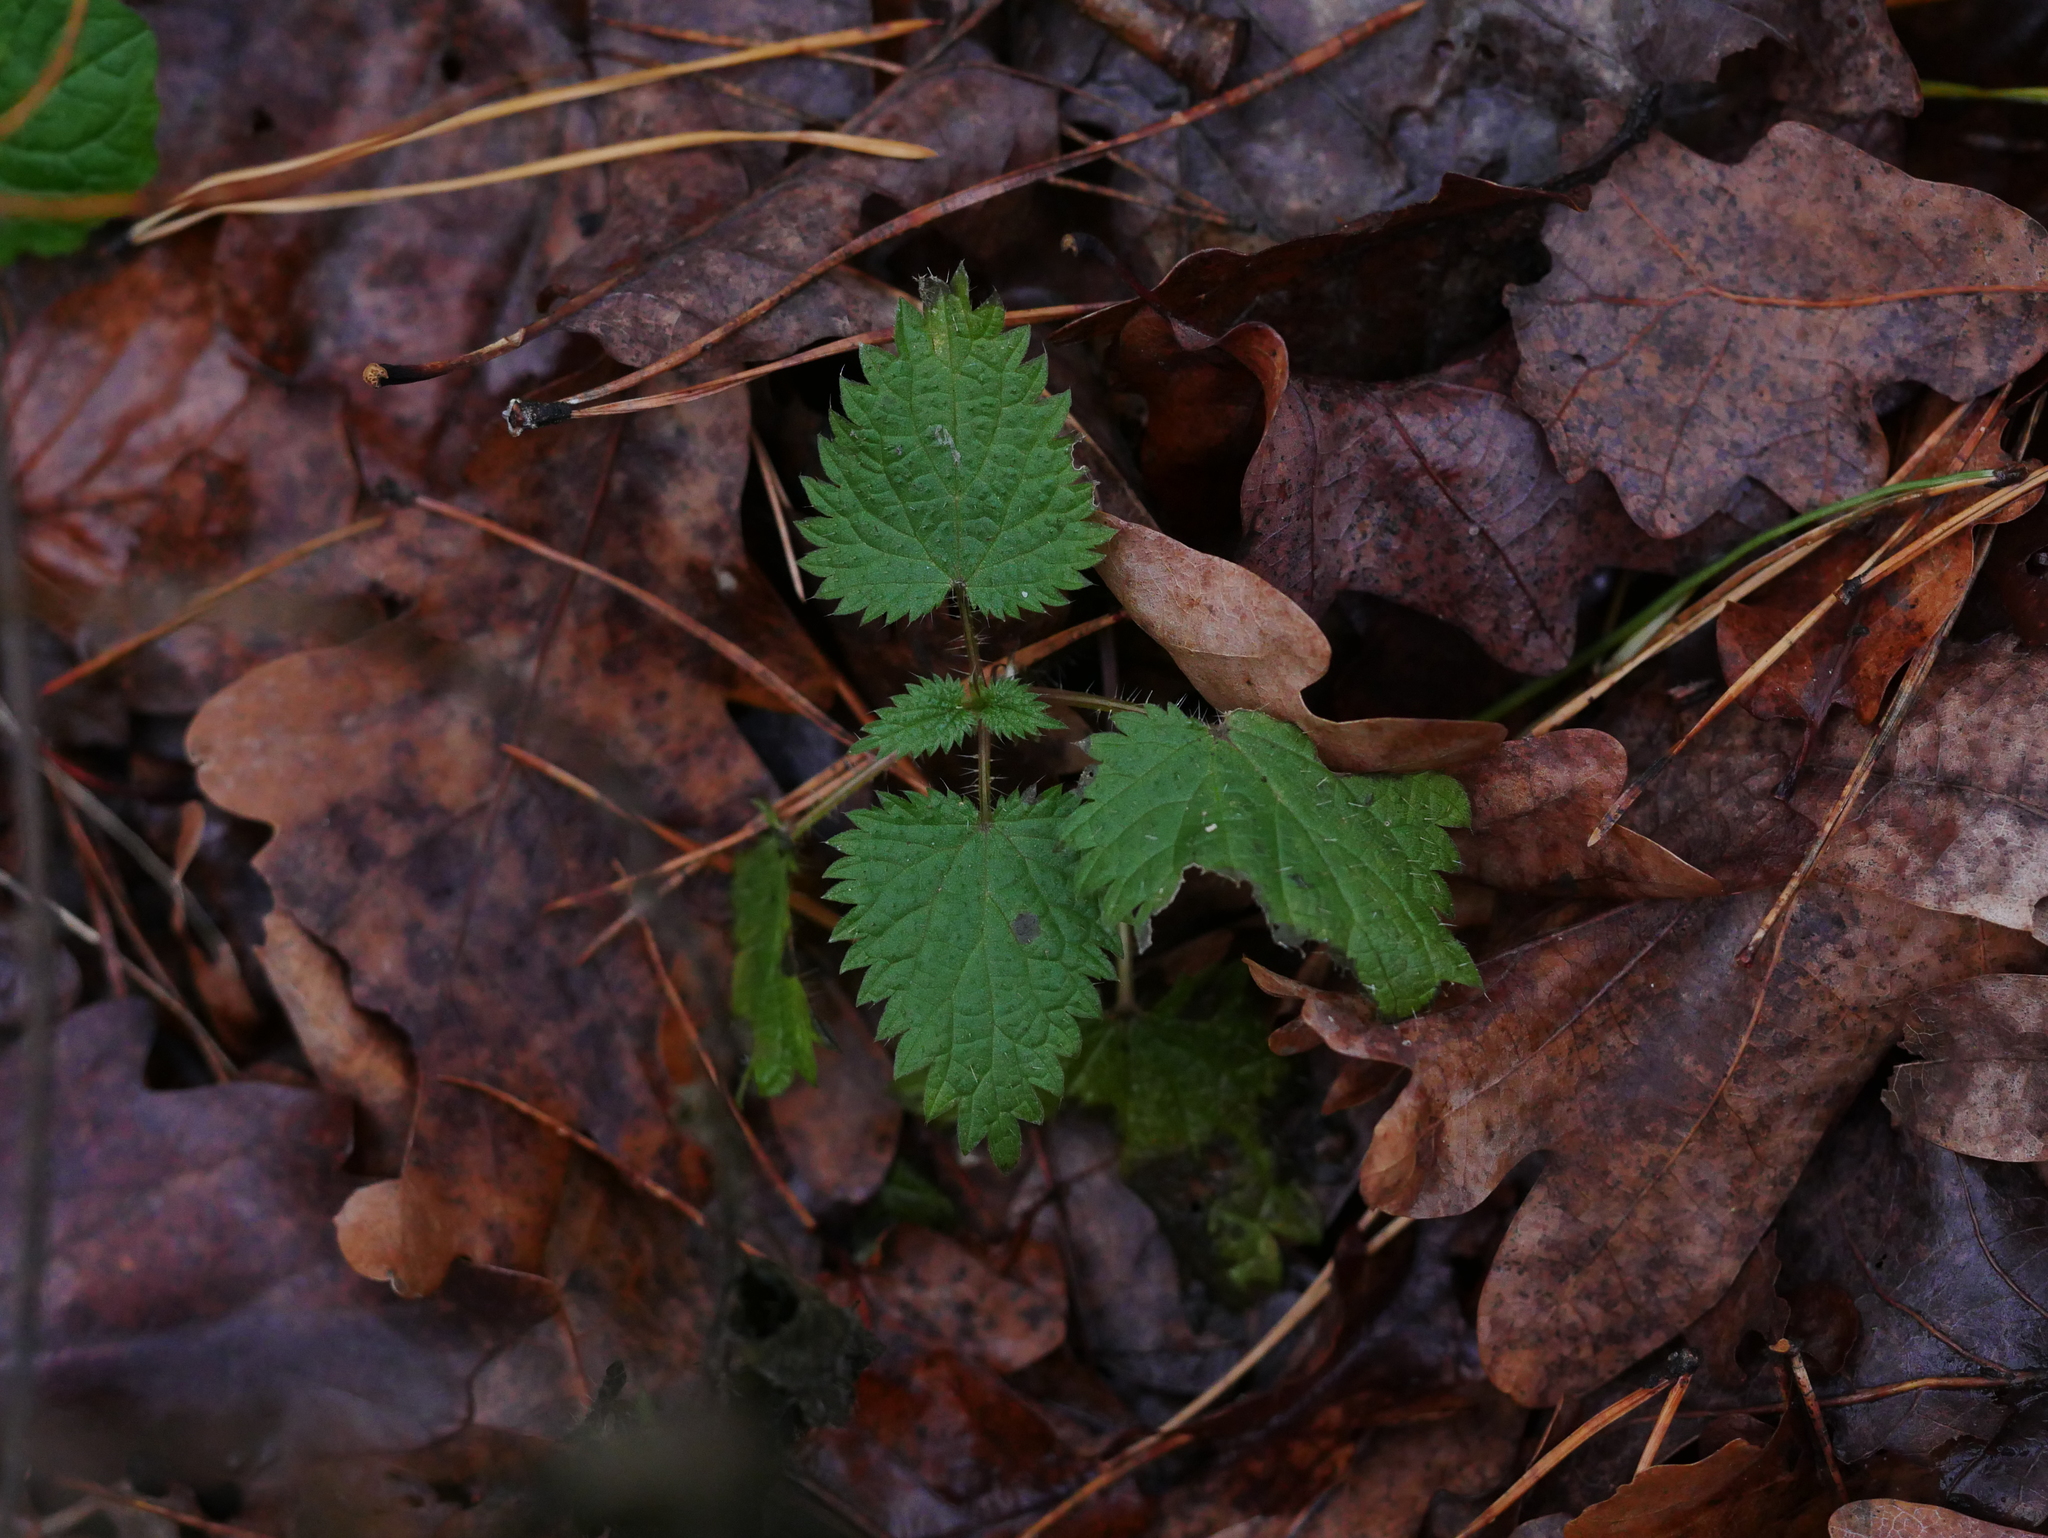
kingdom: Plantae
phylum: Tracheophyta
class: Magnoliopsida
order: Rosales
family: Urticaceae
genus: Urtica
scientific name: Urtica dioica
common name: Common nettle
